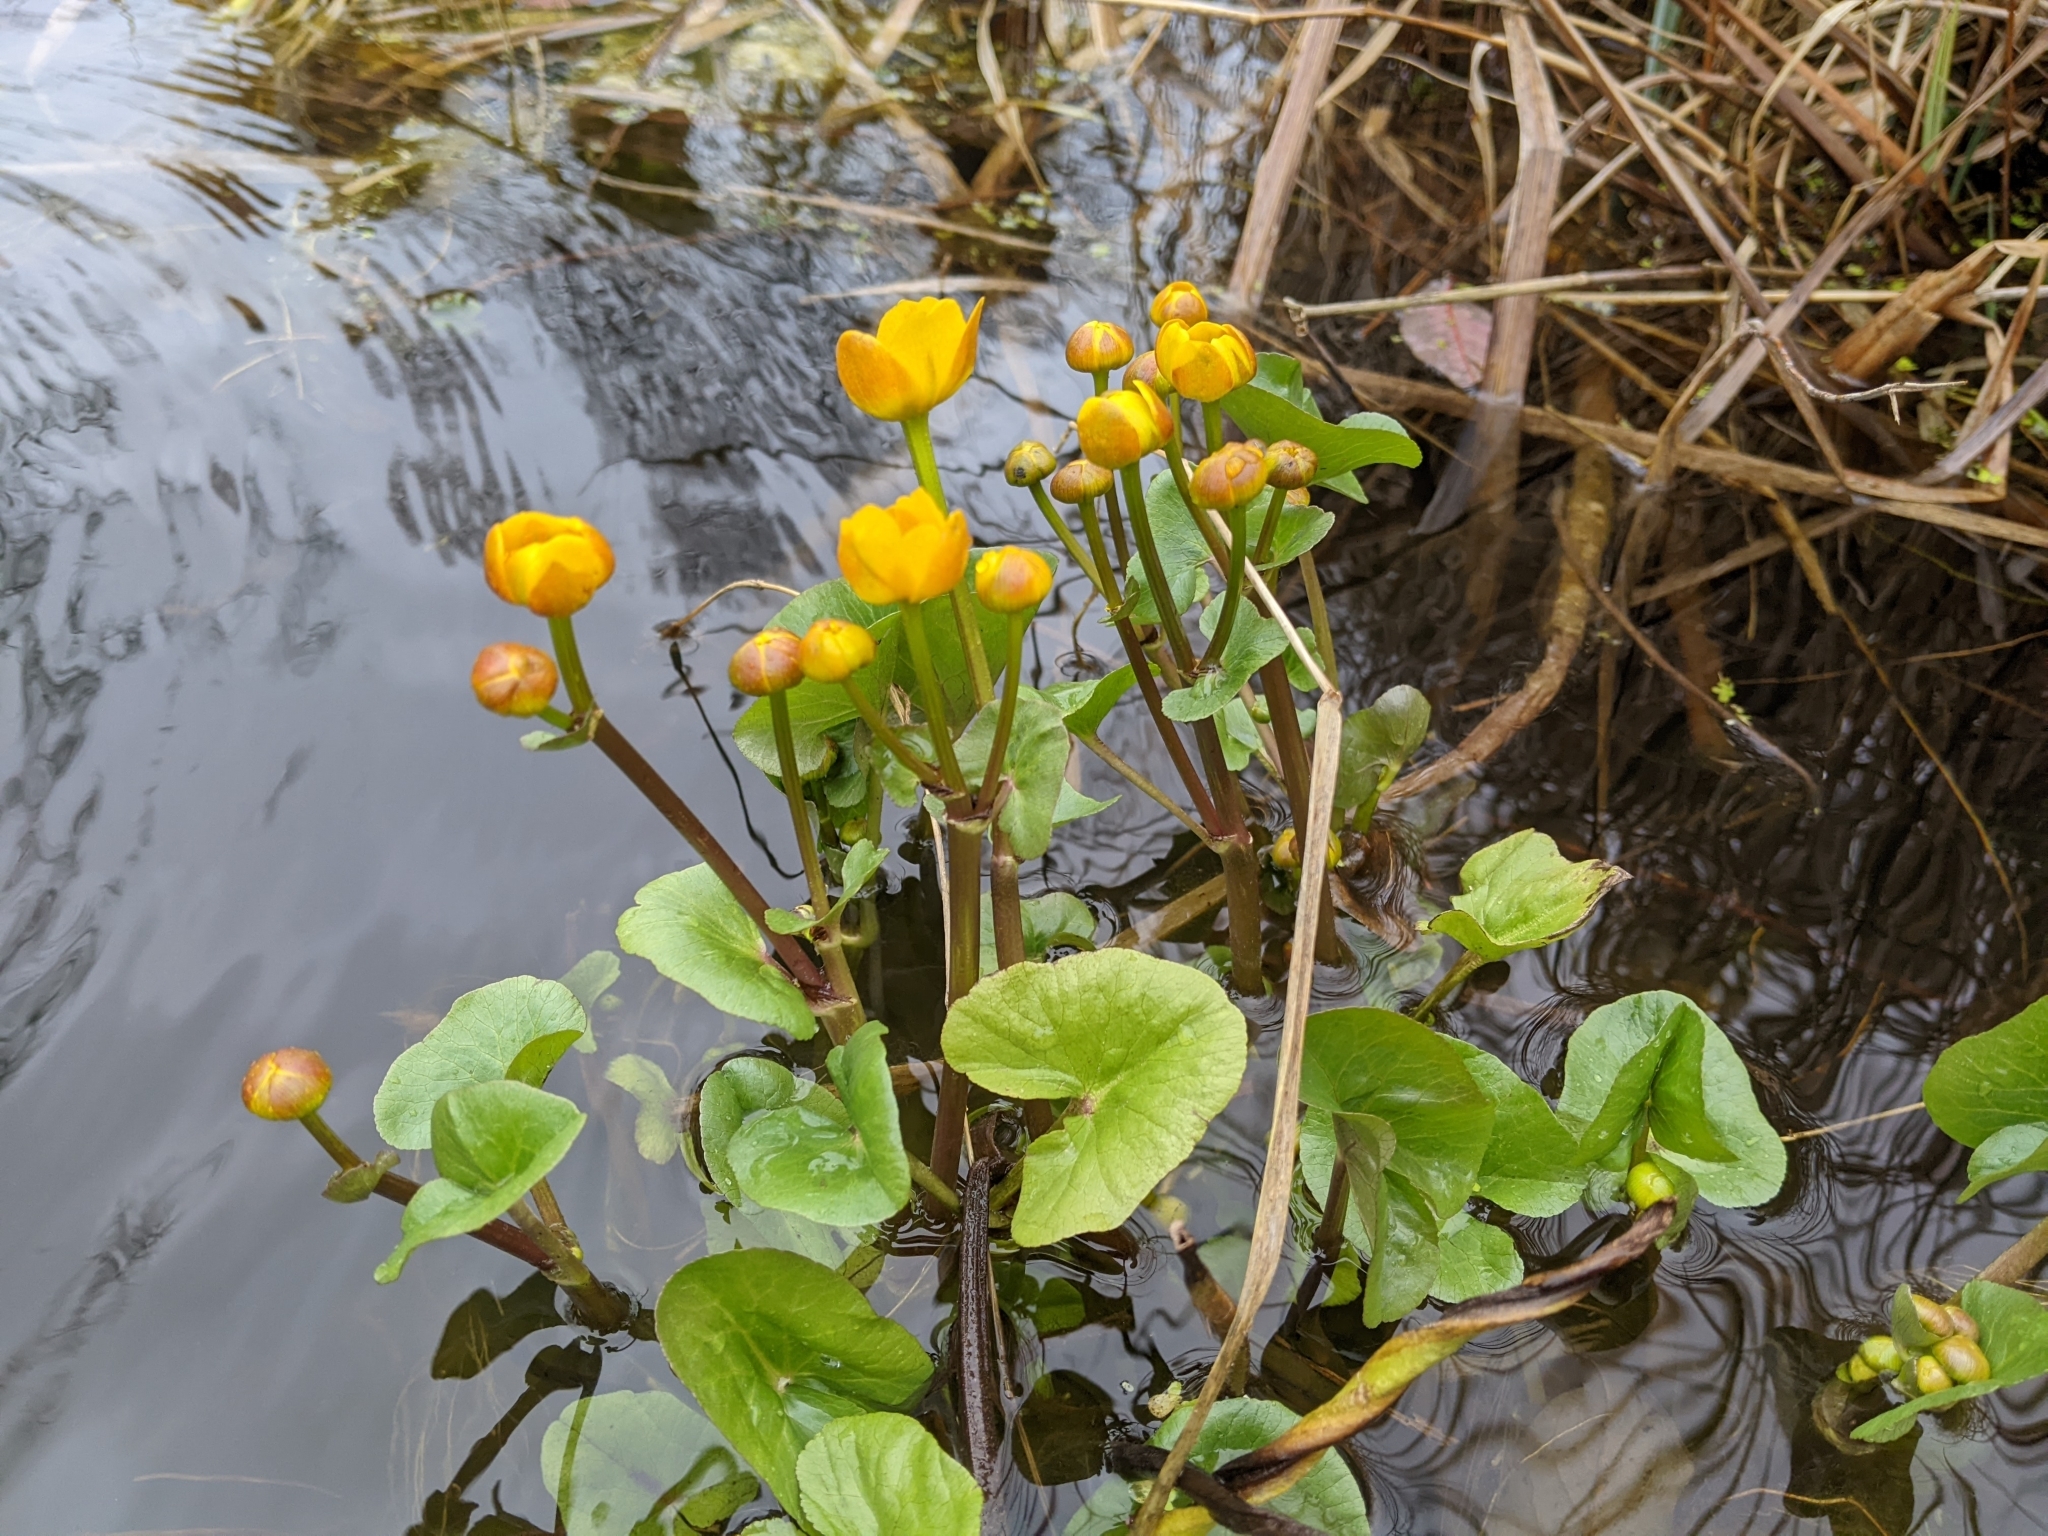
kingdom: Plantae
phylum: Tracheophyta
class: Magnoliopsida
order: Ranunculales
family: Ranunculaceae
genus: Caltha
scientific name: Caltha palustris
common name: Marsh marigold
